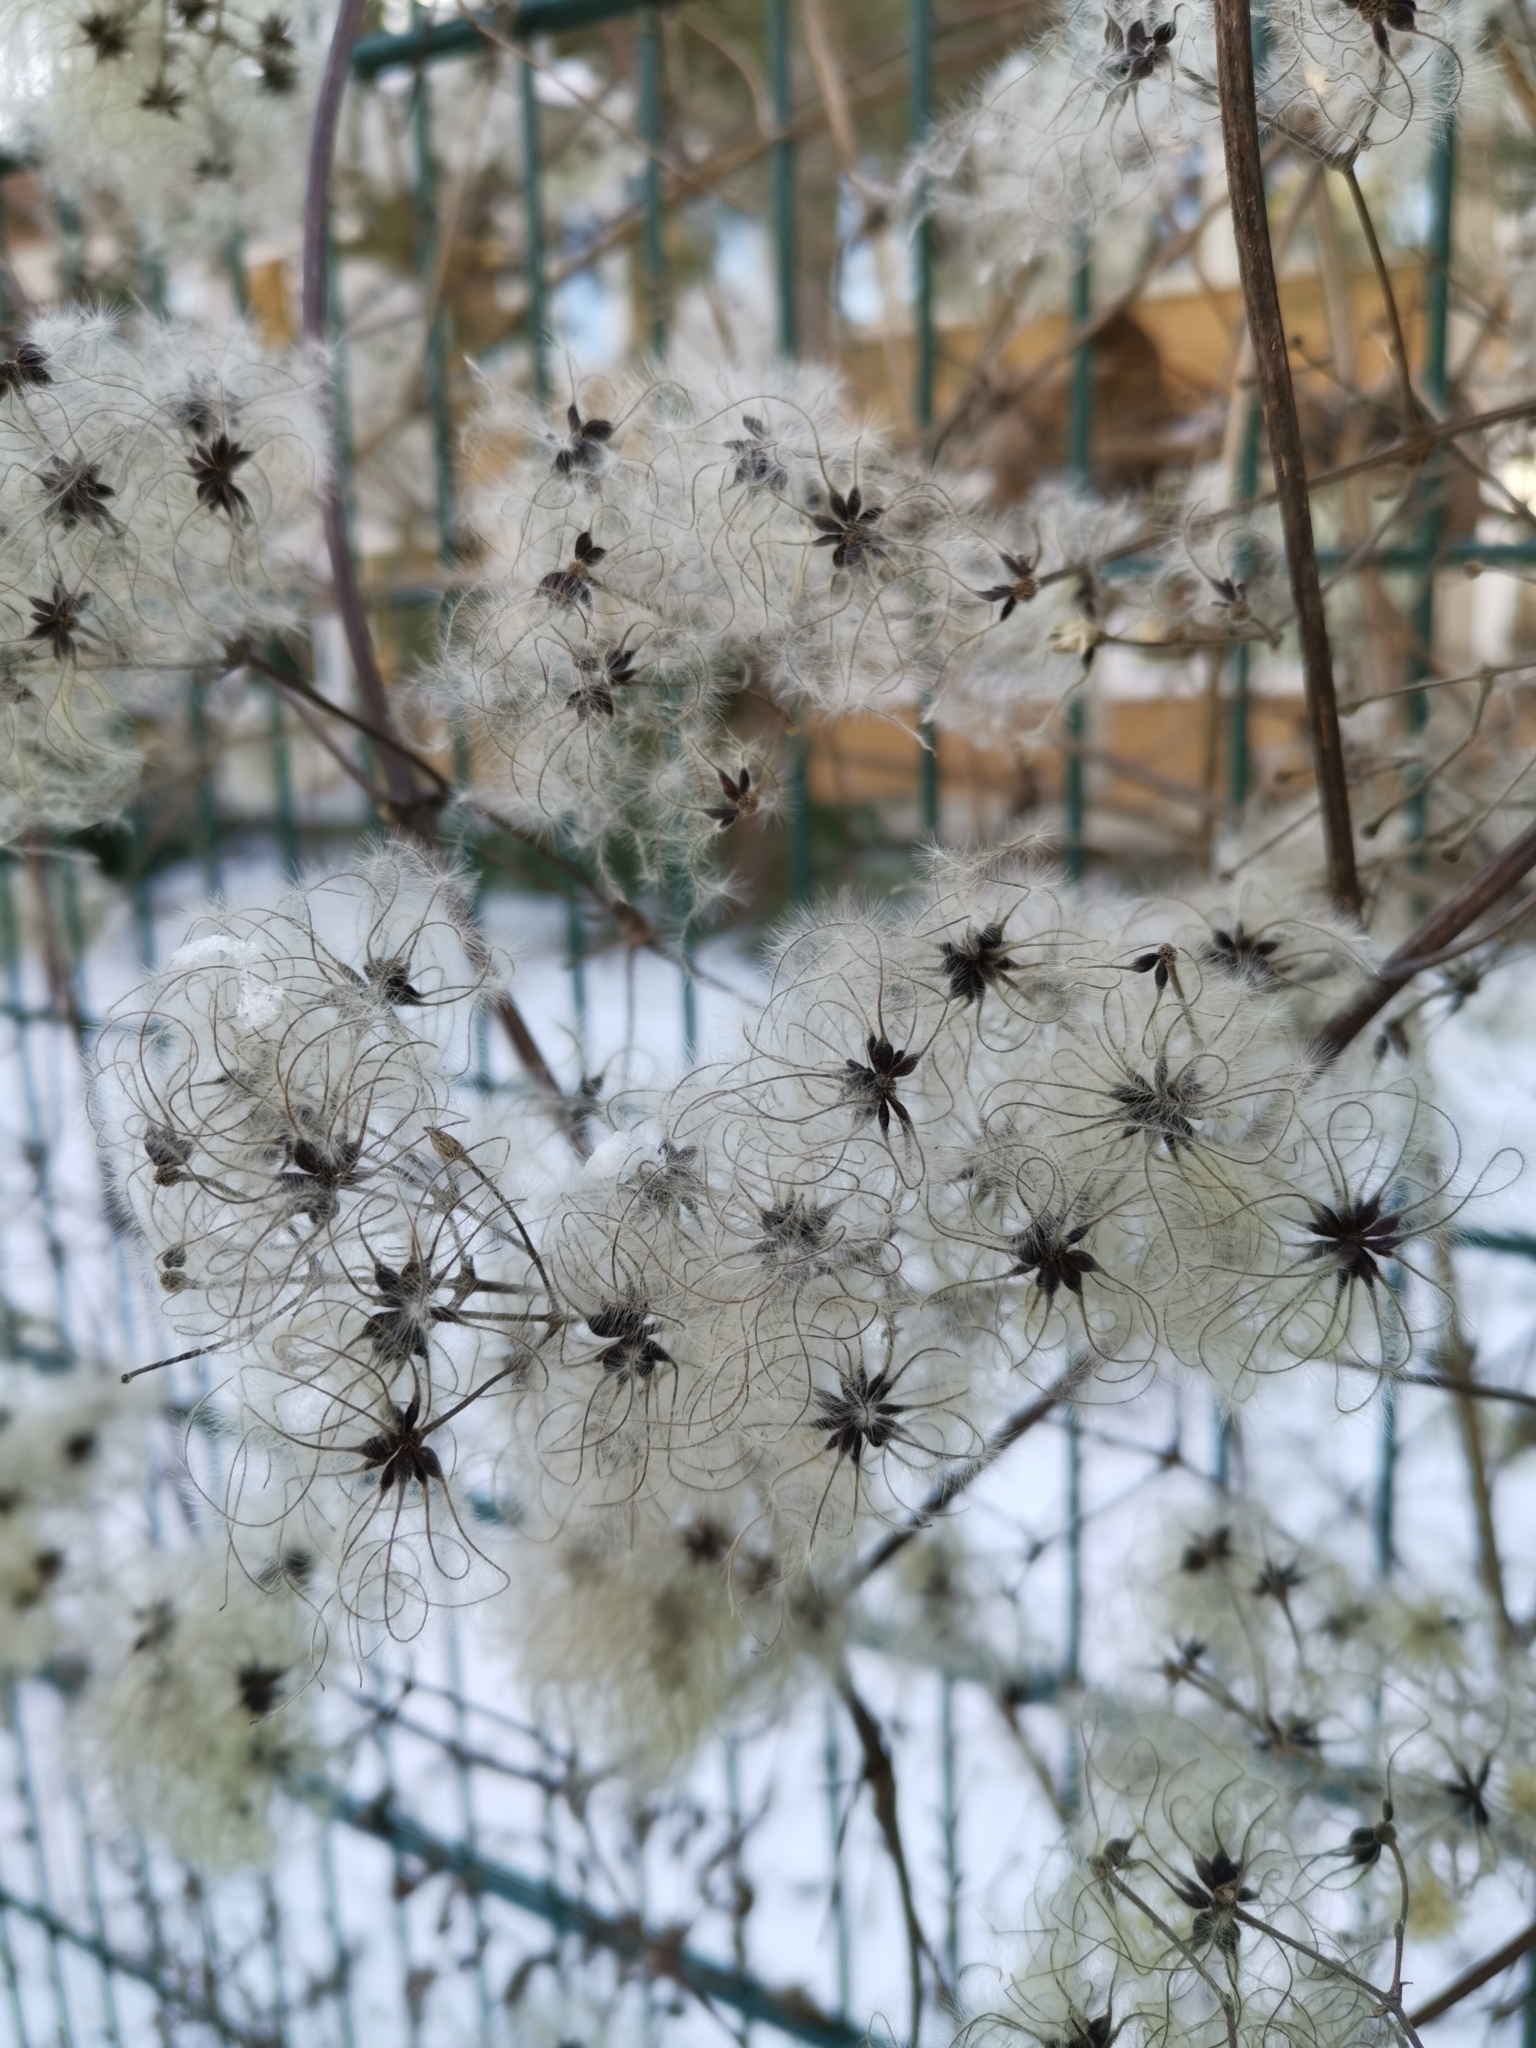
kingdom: Plantae
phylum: Tracheophyta
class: Magnoliopsida
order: Ranunculales
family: Ranunculaceae
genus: Clematis
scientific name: Clematis vitalba
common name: Evergreen clematis
